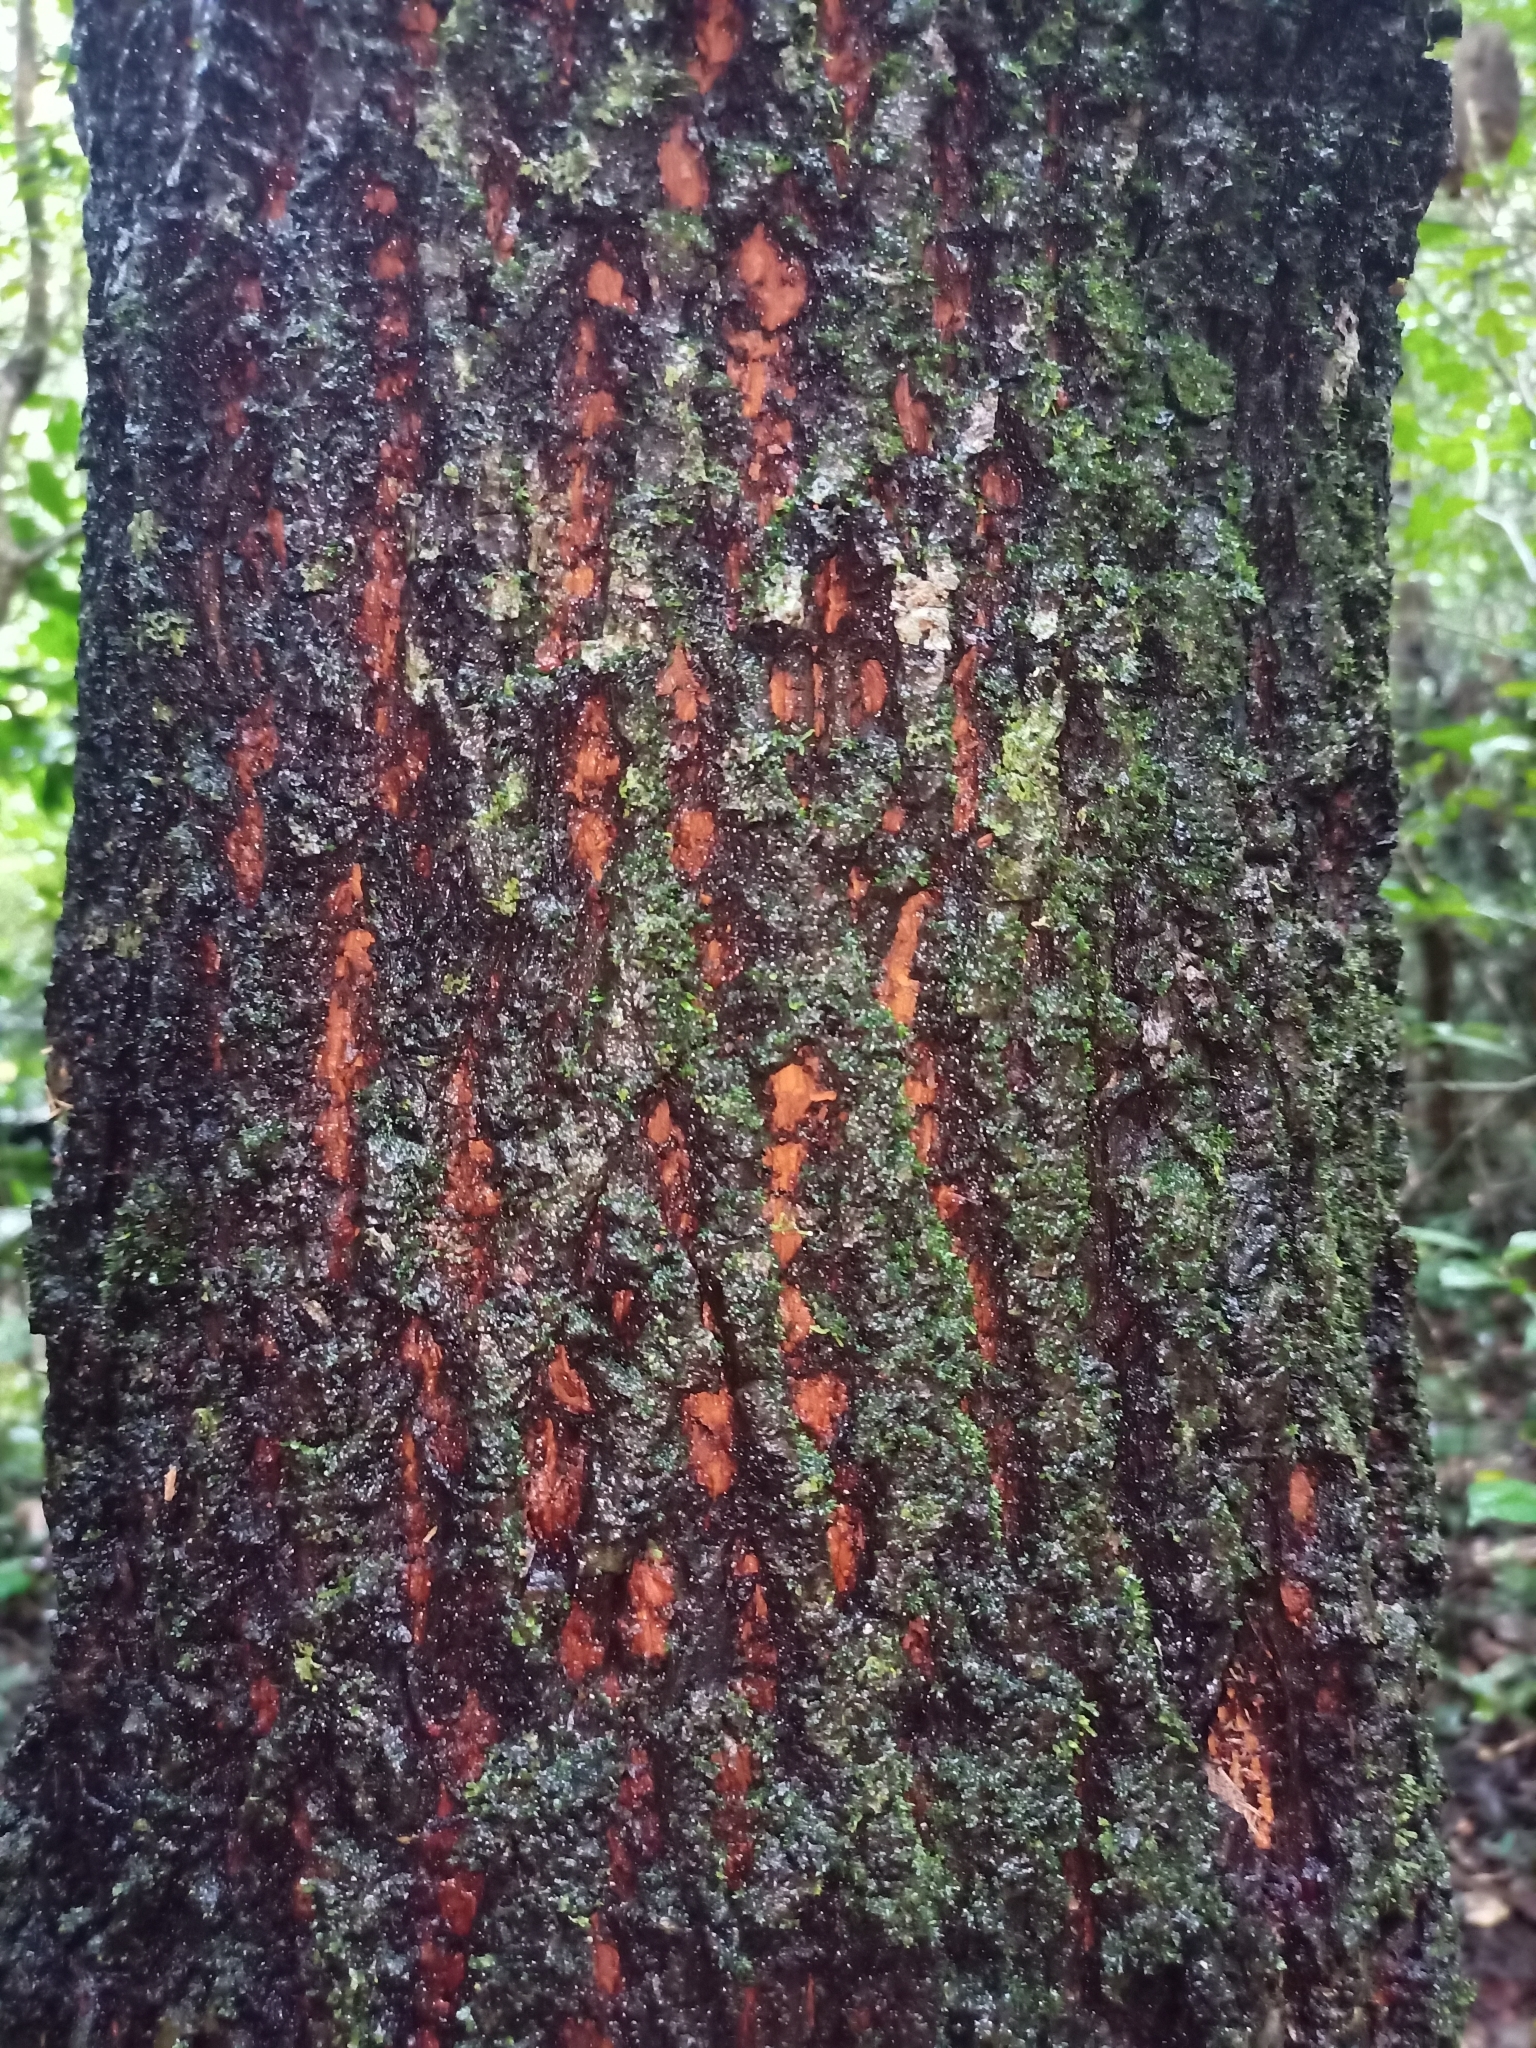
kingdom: Plantae
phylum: Tracheophyta
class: Magnoliopsida
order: Sapindales
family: Meliaceae
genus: Heynea
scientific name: Heynea trijuga
